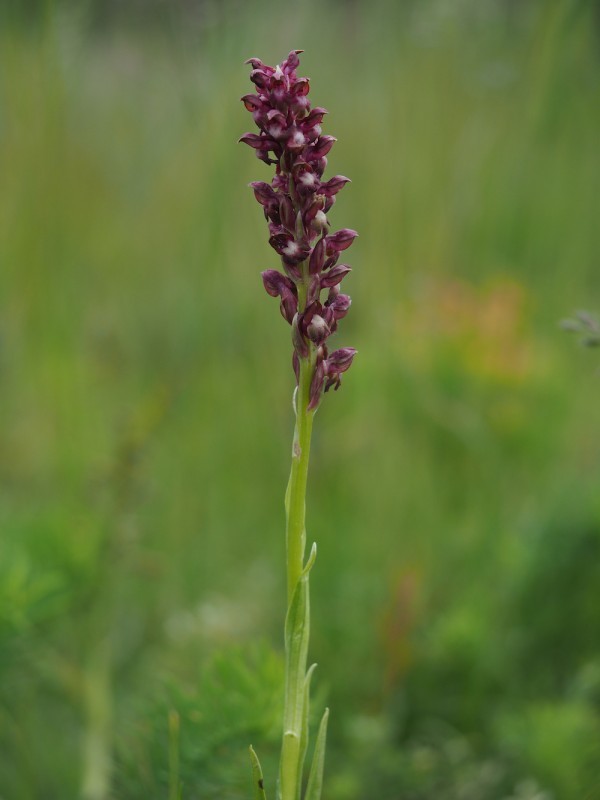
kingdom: Plantae
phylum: Tracheophyta
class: Liliopsida
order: Asparagales
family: Orchidaceae
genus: Anacamptis
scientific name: Anacamptis coriophora
